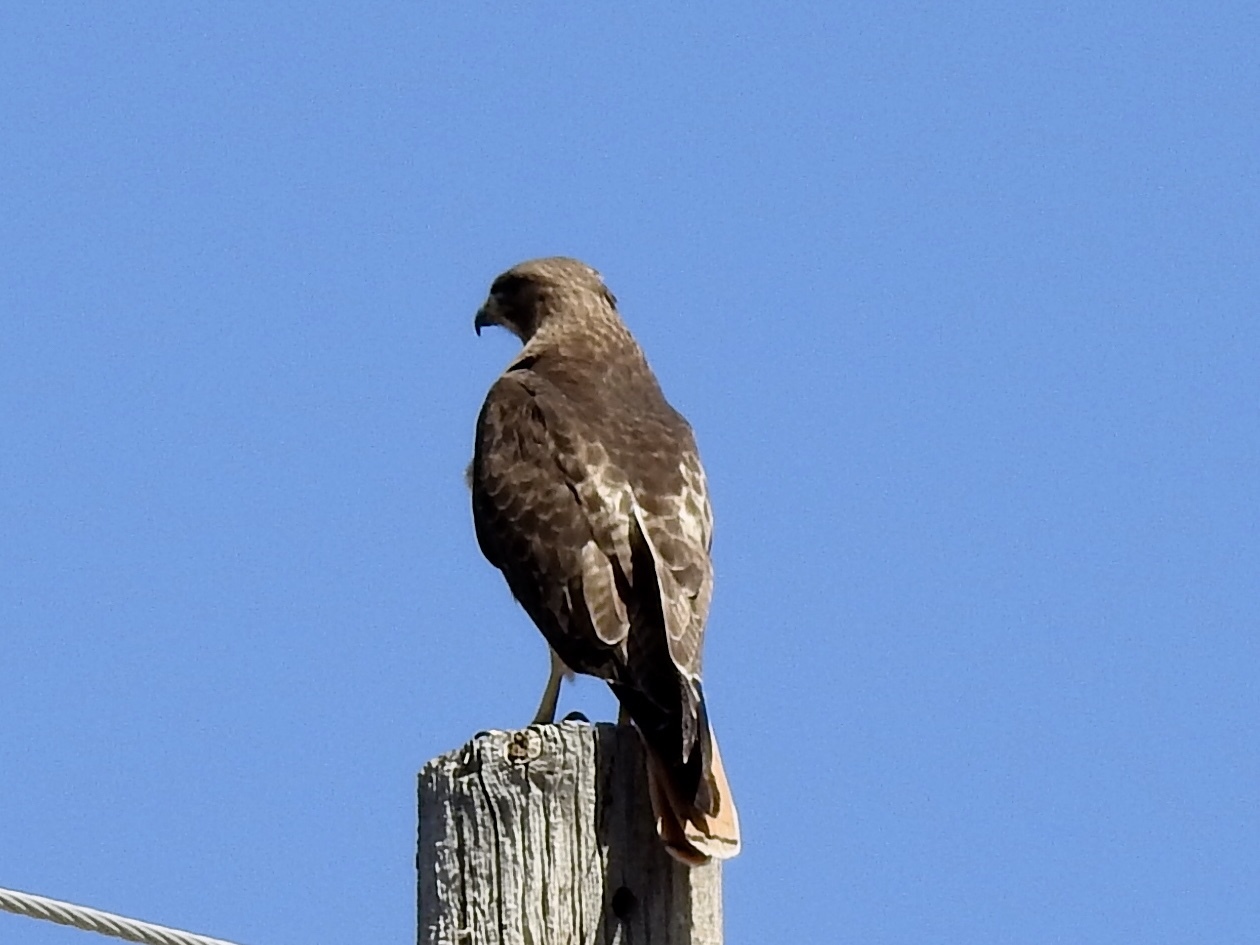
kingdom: Animalia
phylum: Chordata
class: Aves
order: Accipitriformes
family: Accipitridae
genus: Buteo
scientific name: Buteo jamaicensis
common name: Red-tailed hawk
